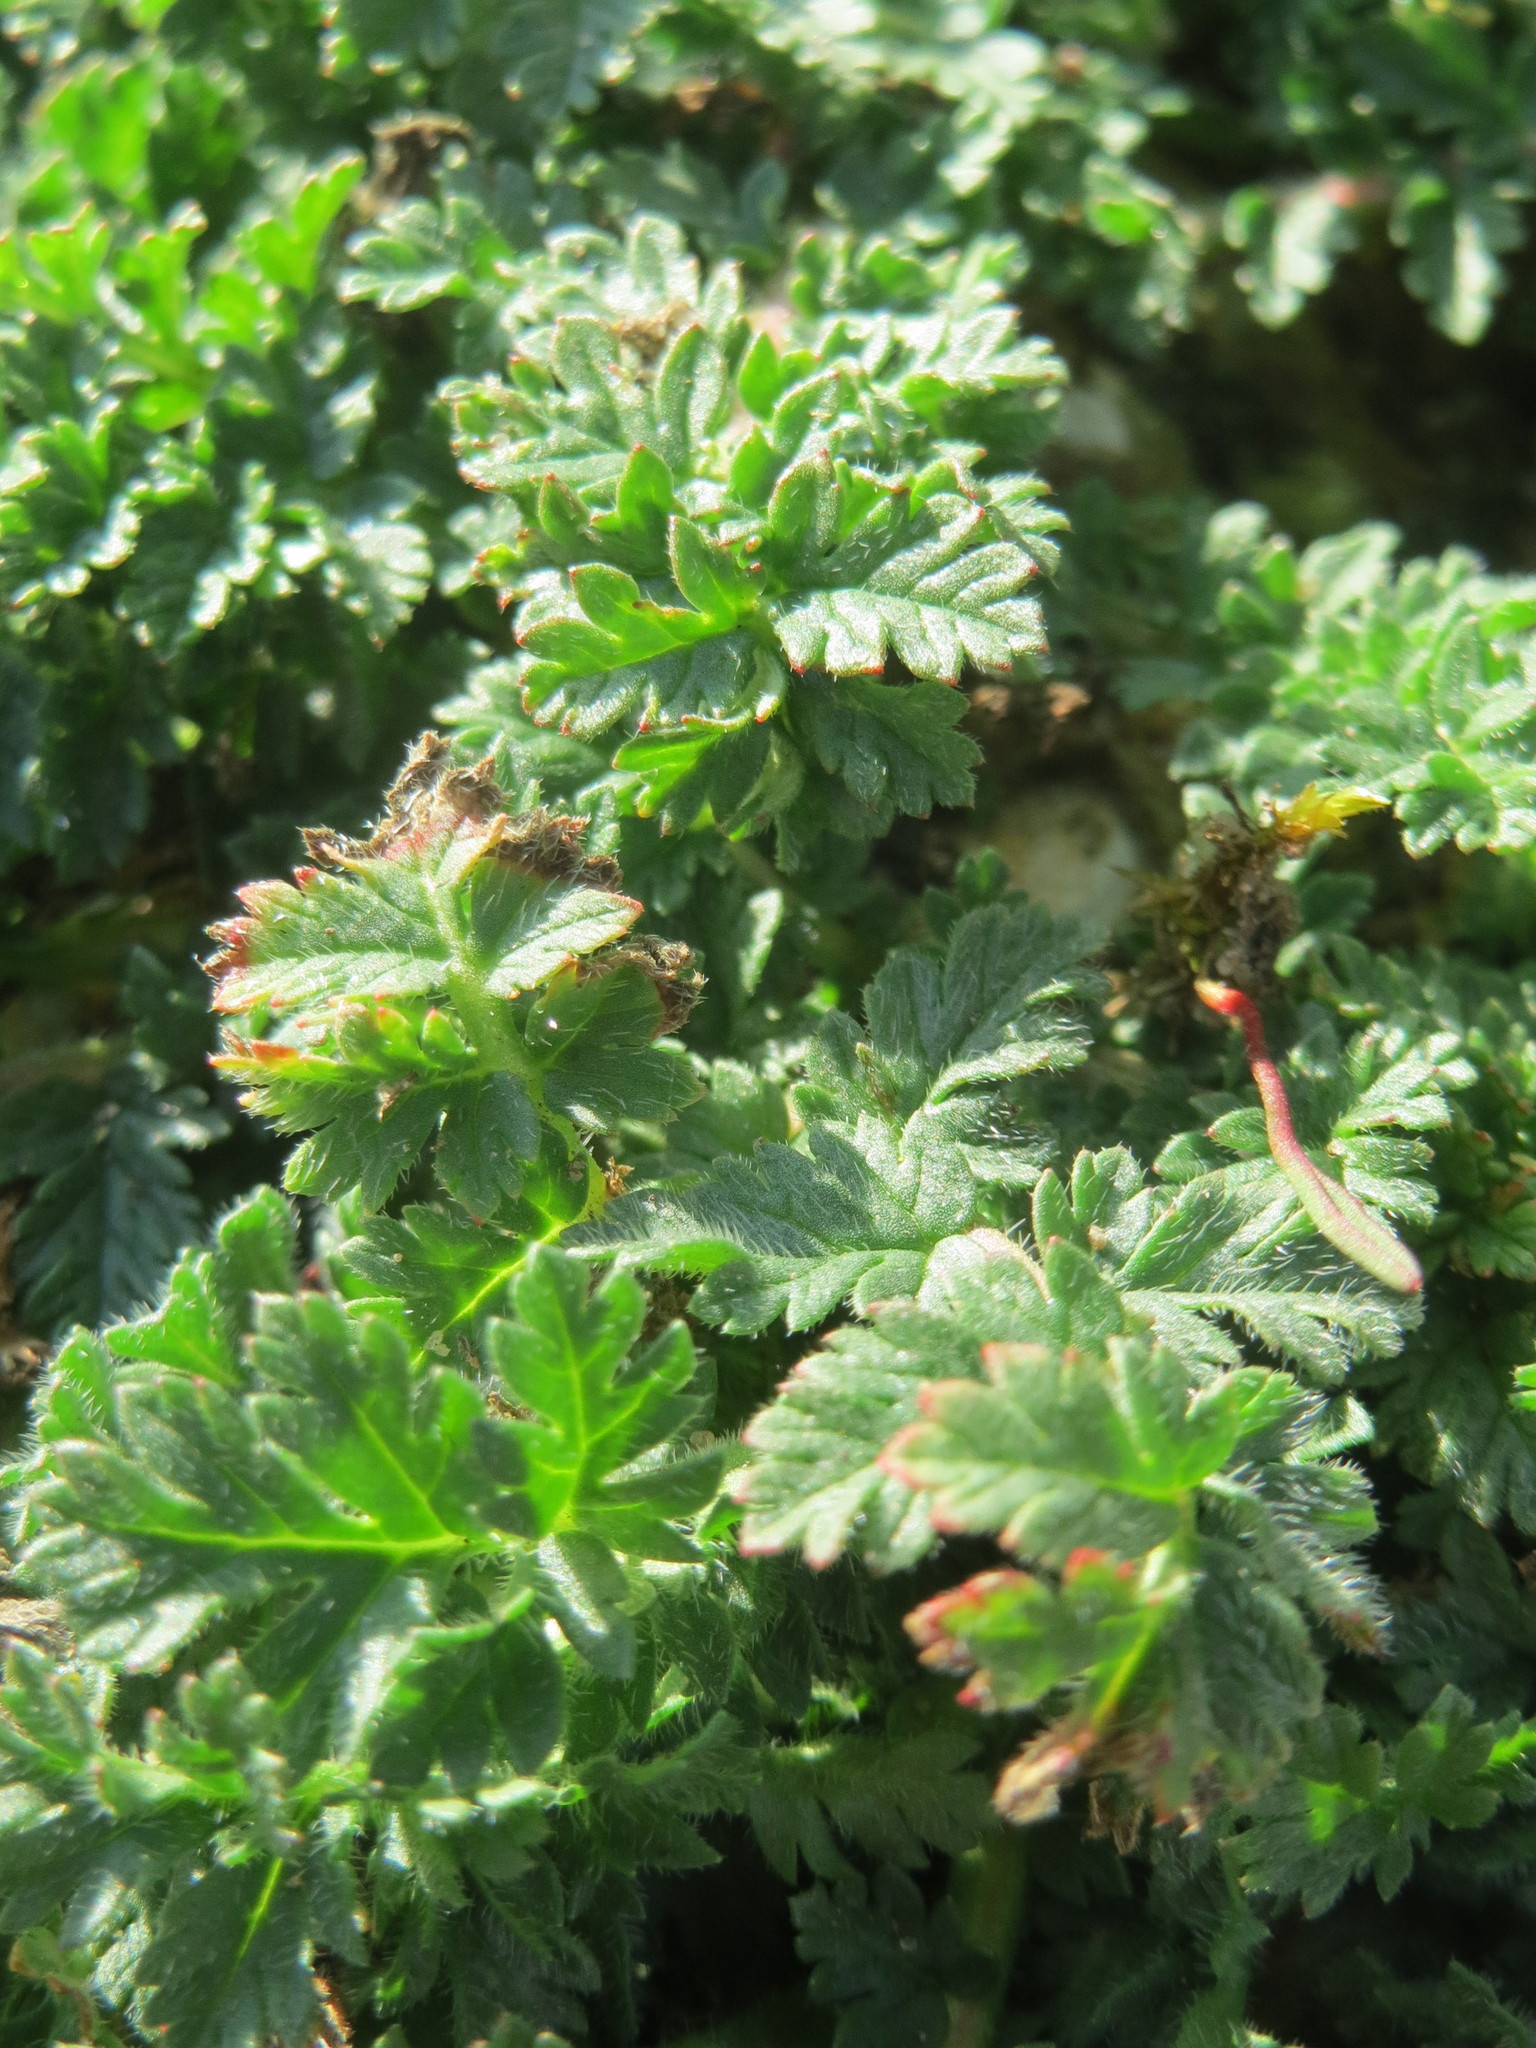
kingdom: Plantae
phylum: Tracheophyta
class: Magnoliopsida
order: Geraniales
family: Geraniaceae
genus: Erodium
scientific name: Erodium cicutarium
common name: Common stork's-bill
